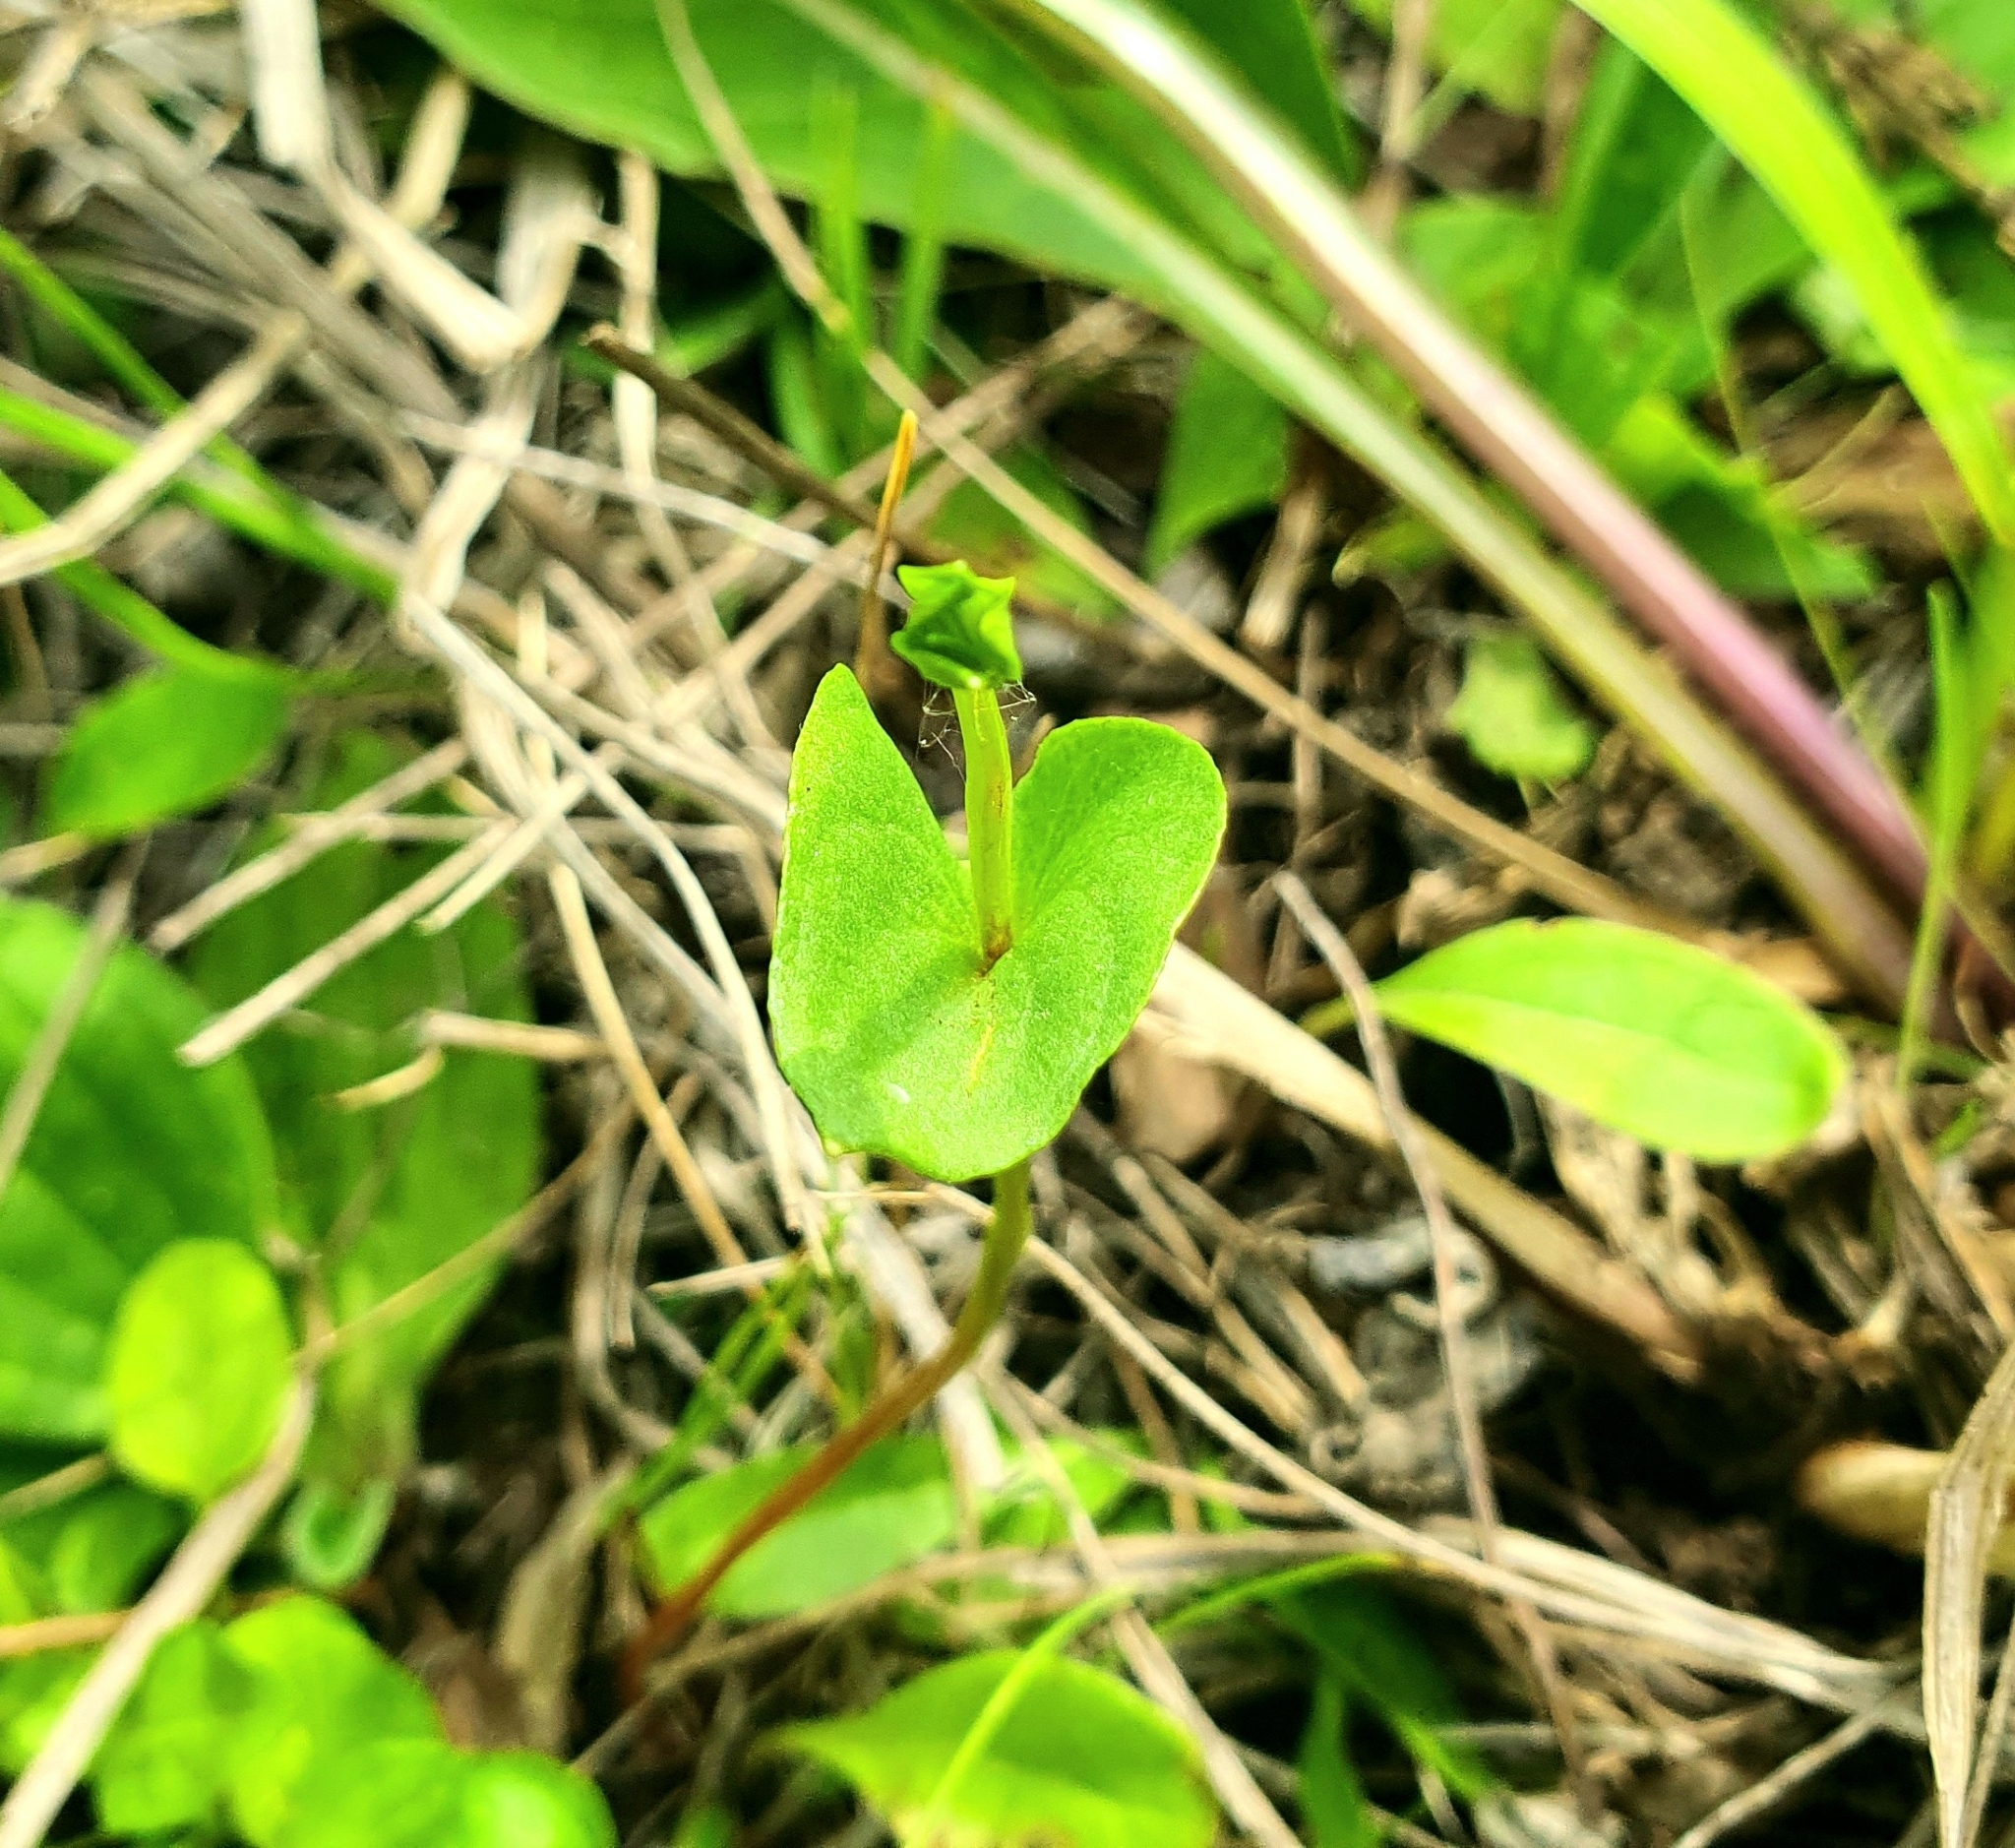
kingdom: Plantae
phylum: Tracheophyta
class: Magnoliopsida
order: Celastrales
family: Parnassiaceae
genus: Parnassia
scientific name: Parnassia palustris
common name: Grass-of-parnassus
